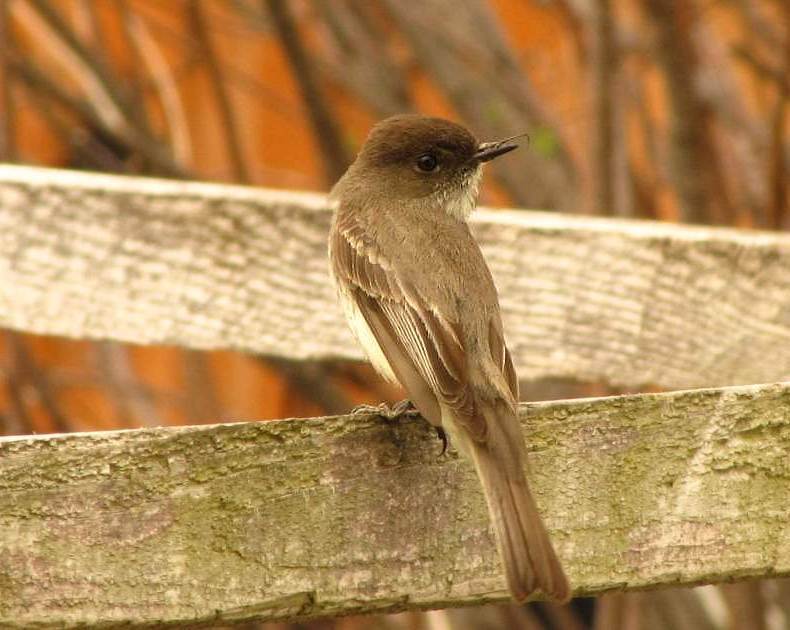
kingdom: Animalia
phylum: Chordata
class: Aves
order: Passeriformes
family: Tyrannidae
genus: Sayornis
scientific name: Sayornis phoebe
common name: Eastern phoebe
